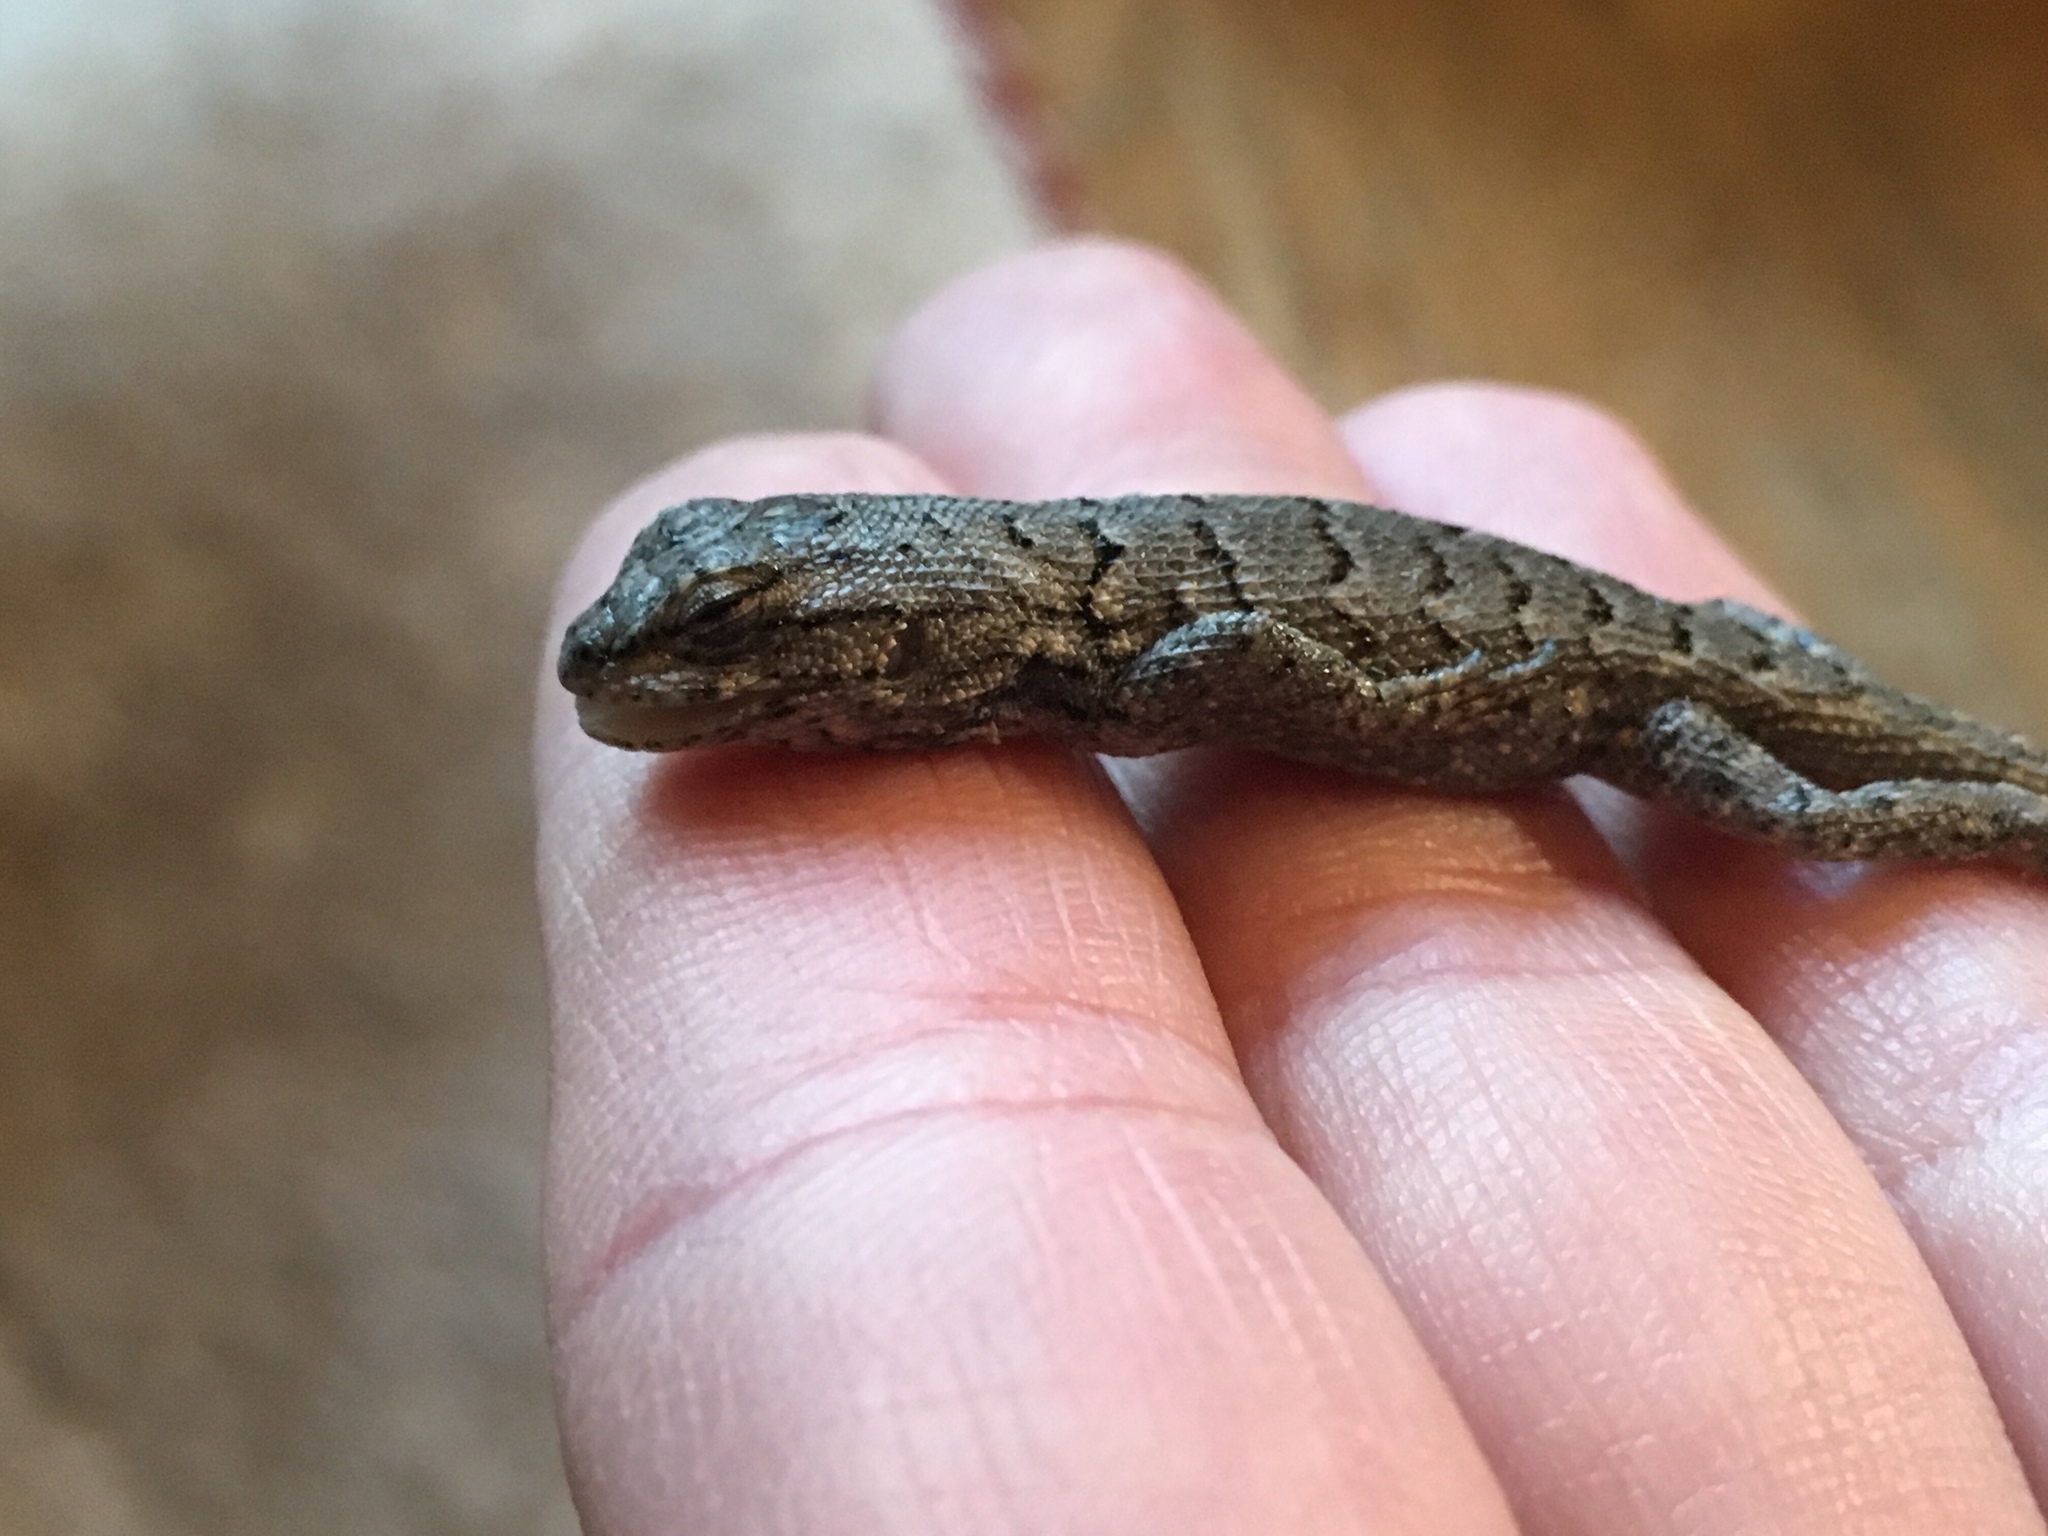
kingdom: Animalia
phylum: Chordata
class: Squamata
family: Phrynosomatidae
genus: Sceloporus
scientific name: Sceloporus consobrinus
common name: Southern prairie lizard
